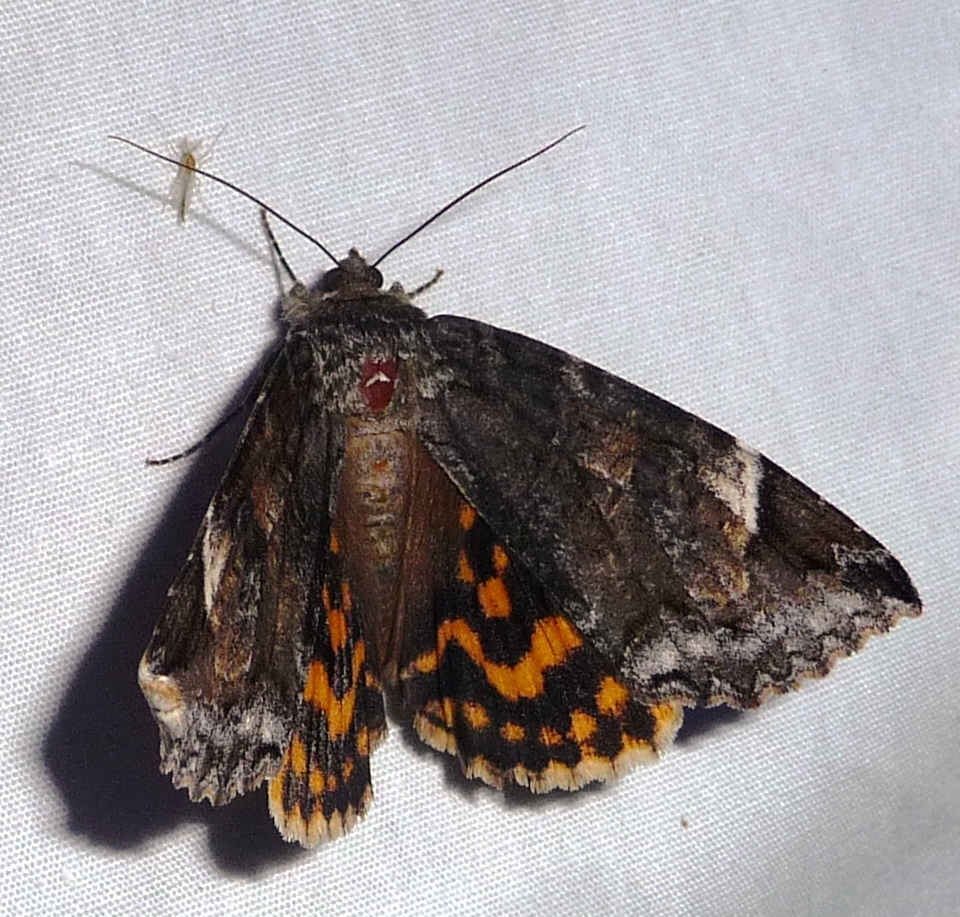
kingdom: Animalia
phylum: Arthropoda
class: Insecta
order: Lepidoptera
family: Erebidae
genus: Euparthenos
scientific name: Euparthenos nubilis
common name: Locust underwing
